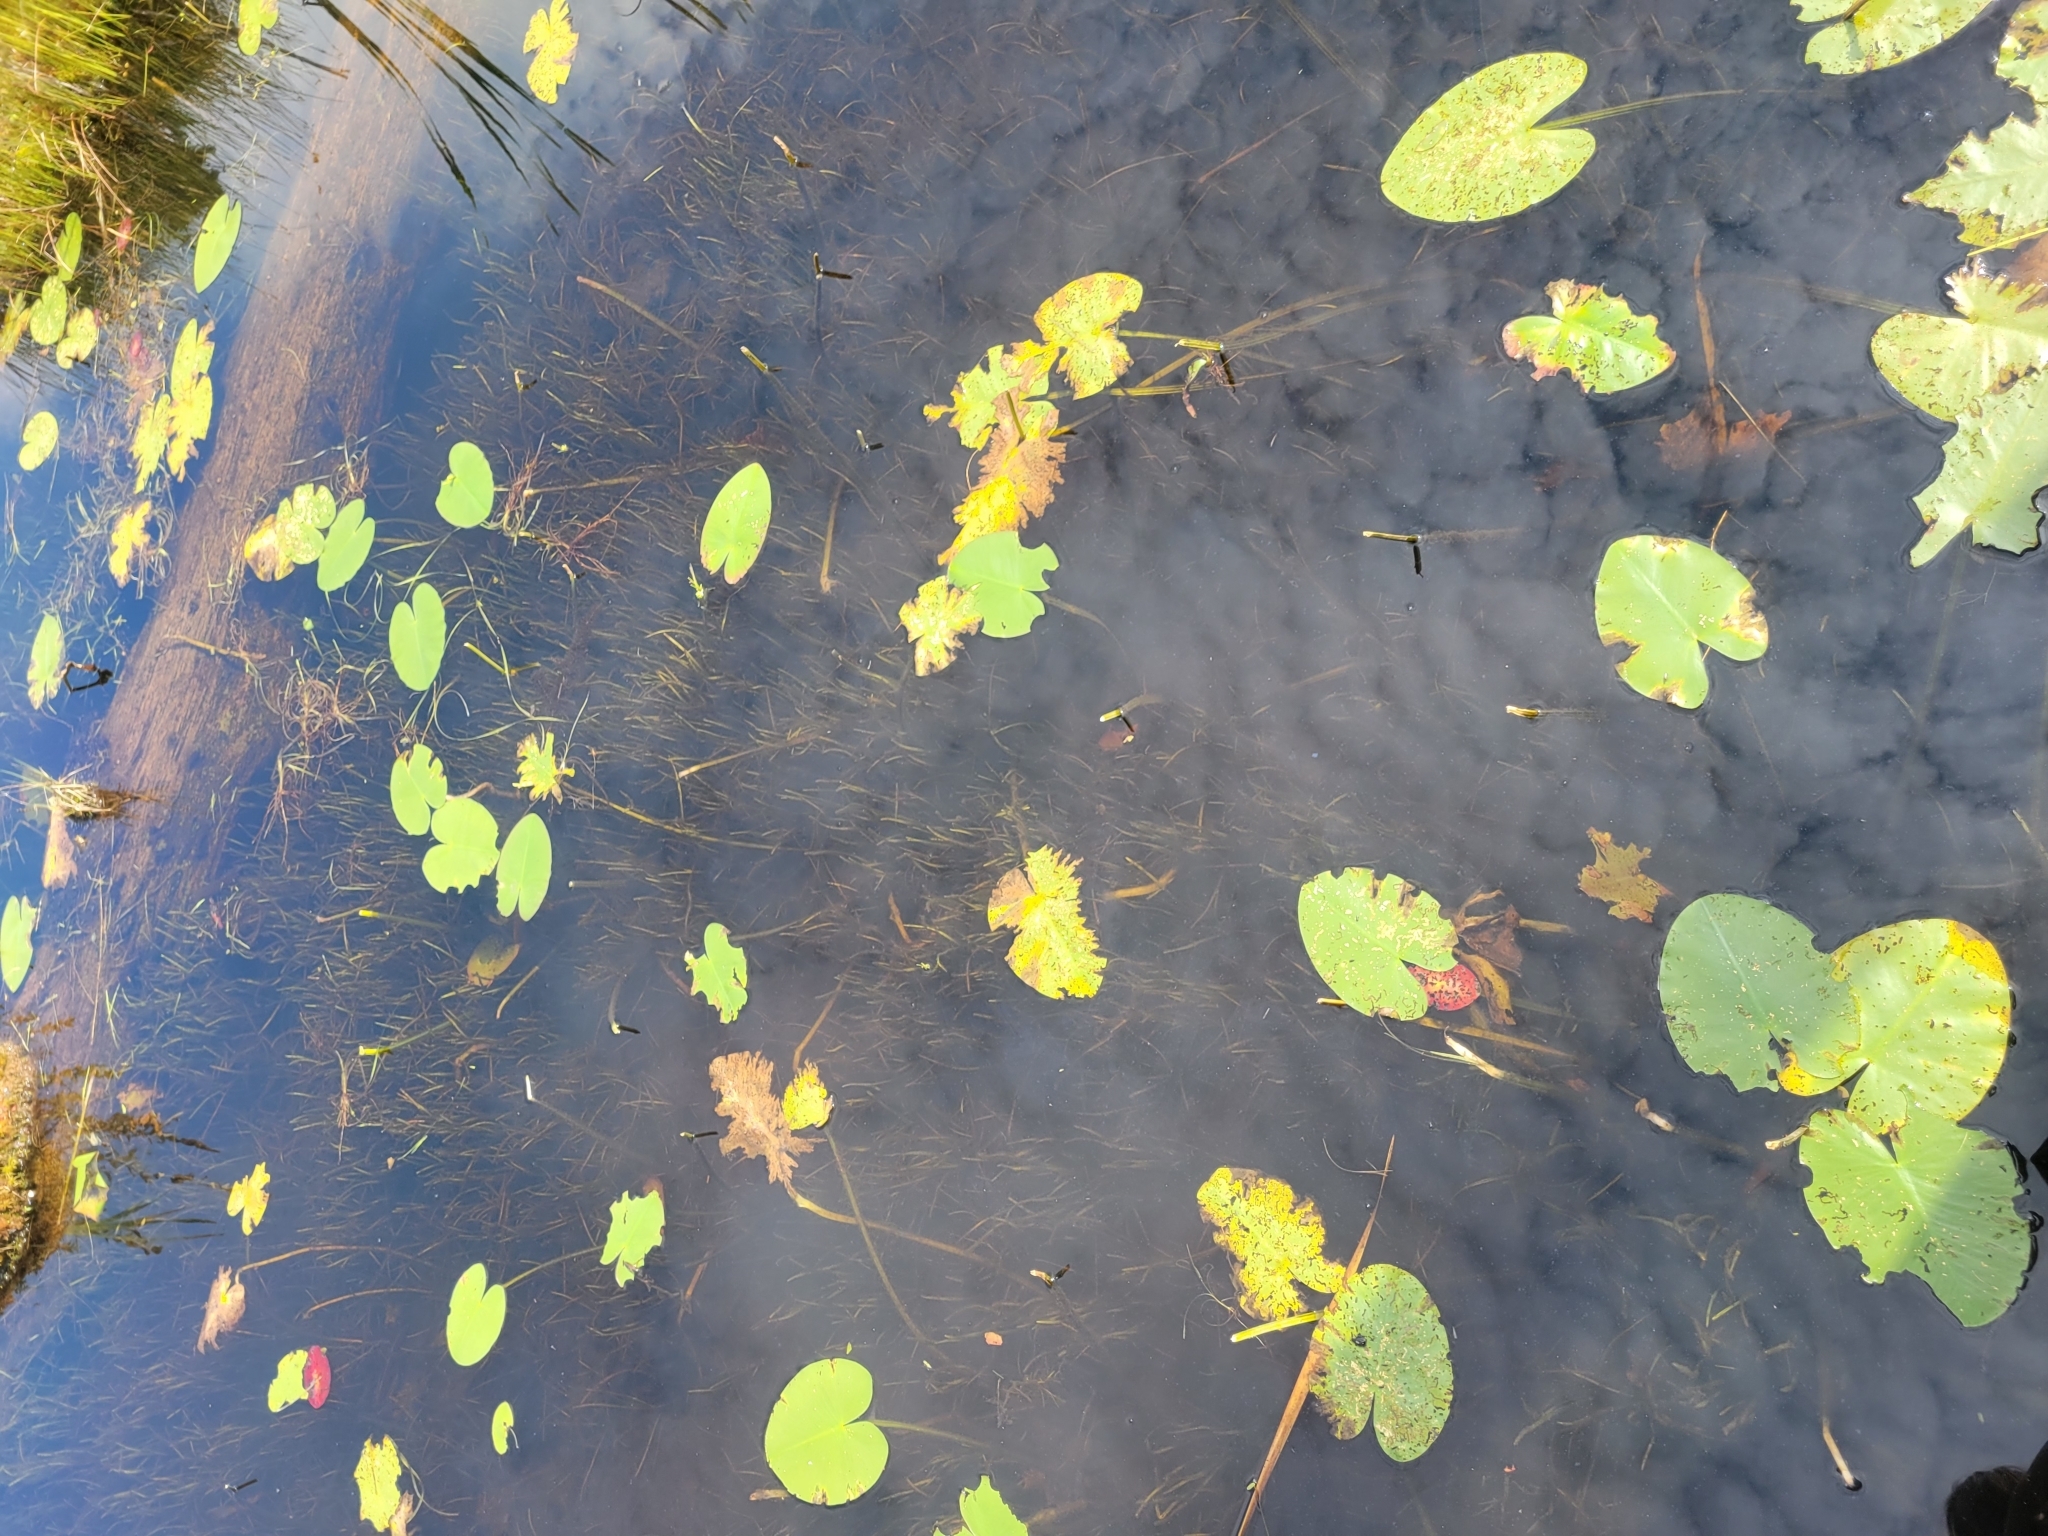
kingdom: Plantae
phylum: Tracheophyta
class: Magnoliopsida
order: Nymphaeales
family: Nymphaeaceae
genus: Nuphar
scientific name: Nuphar variegata
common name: Beaver-root
